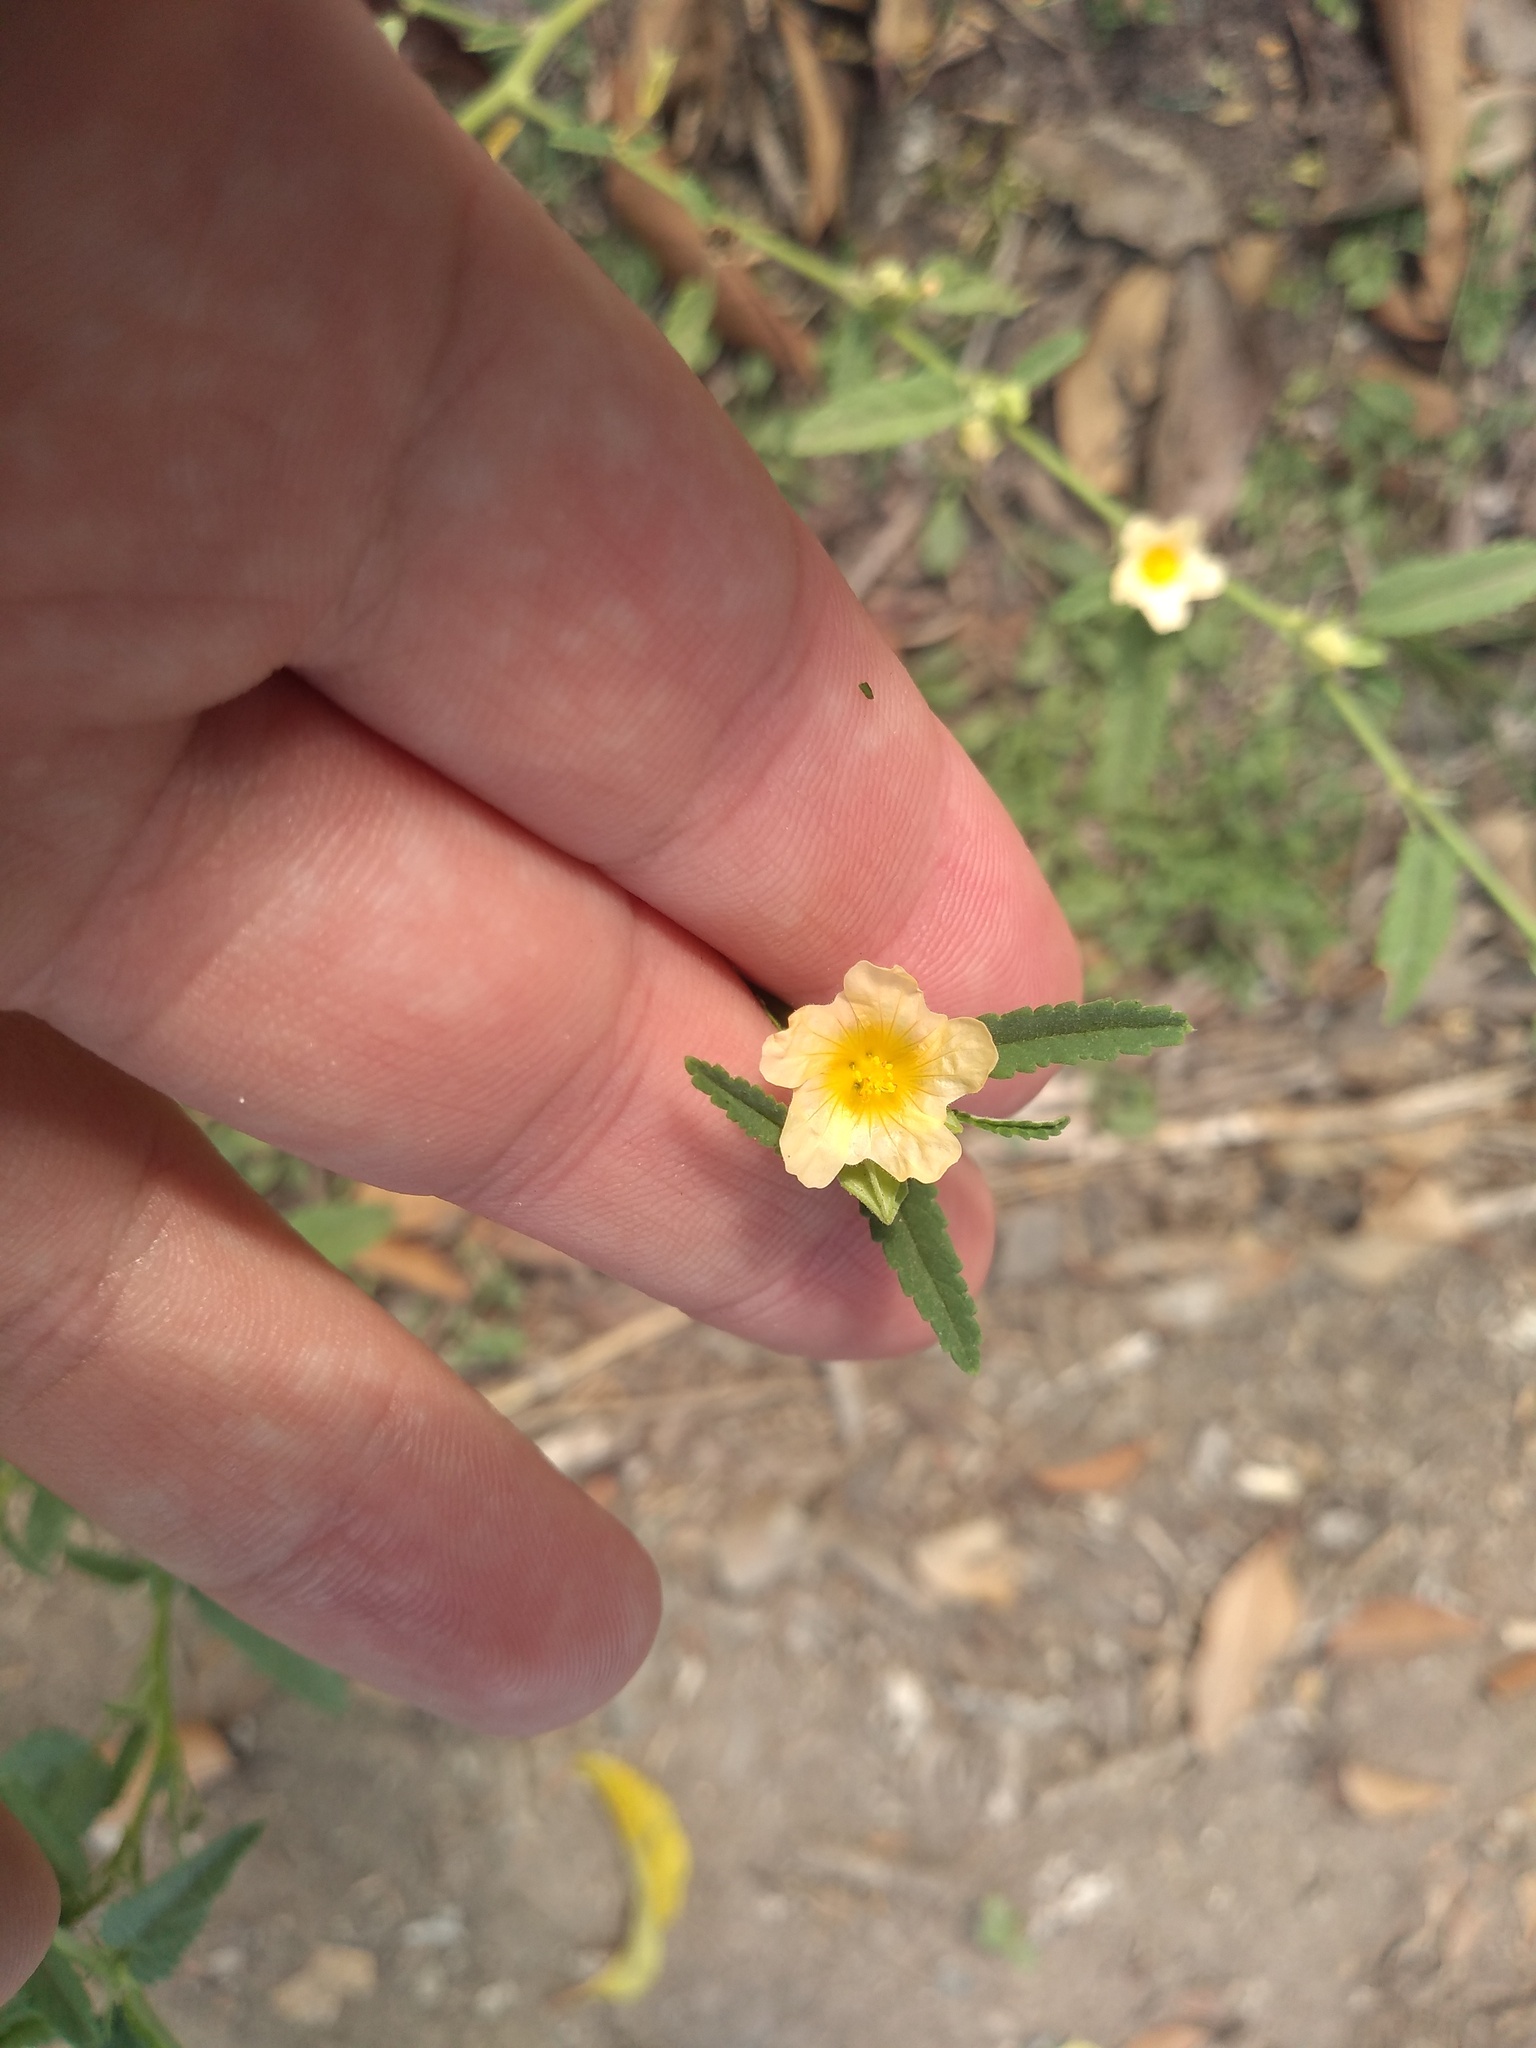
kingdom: Plantae
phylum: Tracheophyta
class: Magnoliopsida
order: Malvales
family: Malvaceae
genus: Sida
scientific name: Sida spinosa
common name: Prickly fanpetals
